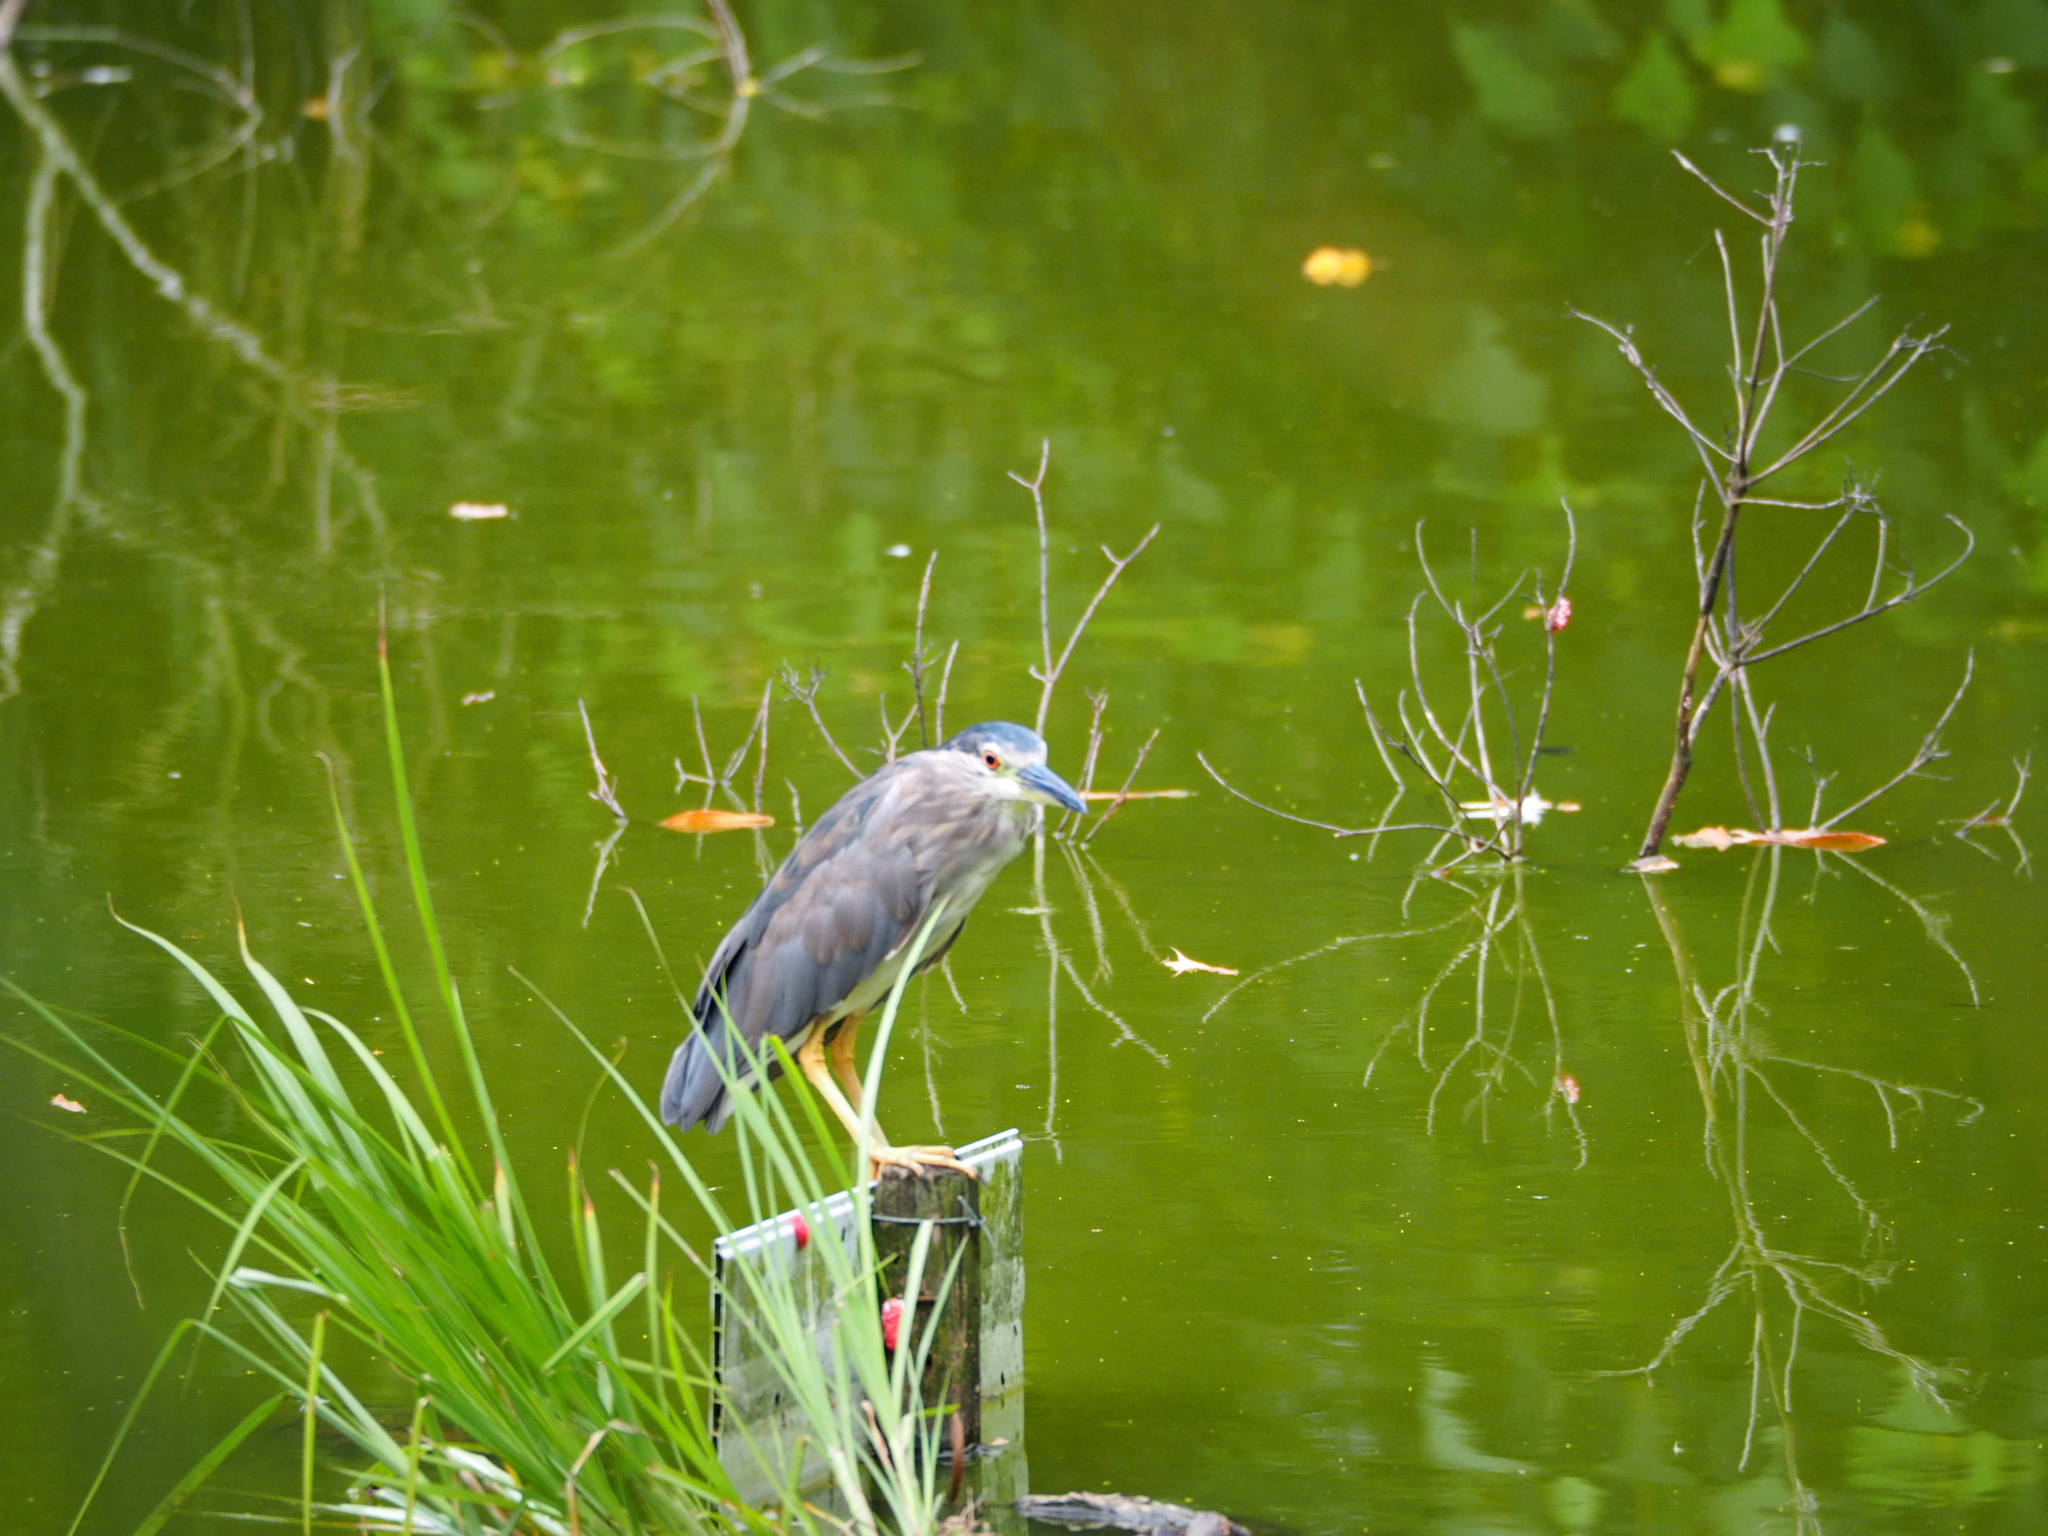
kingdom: Animalia
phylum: Chordata
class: Aves
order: Pelecaniformes
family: Ardeidae
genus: Nycticorax
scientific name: Nycticorax nycticorax
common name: Black-crowned night heron
